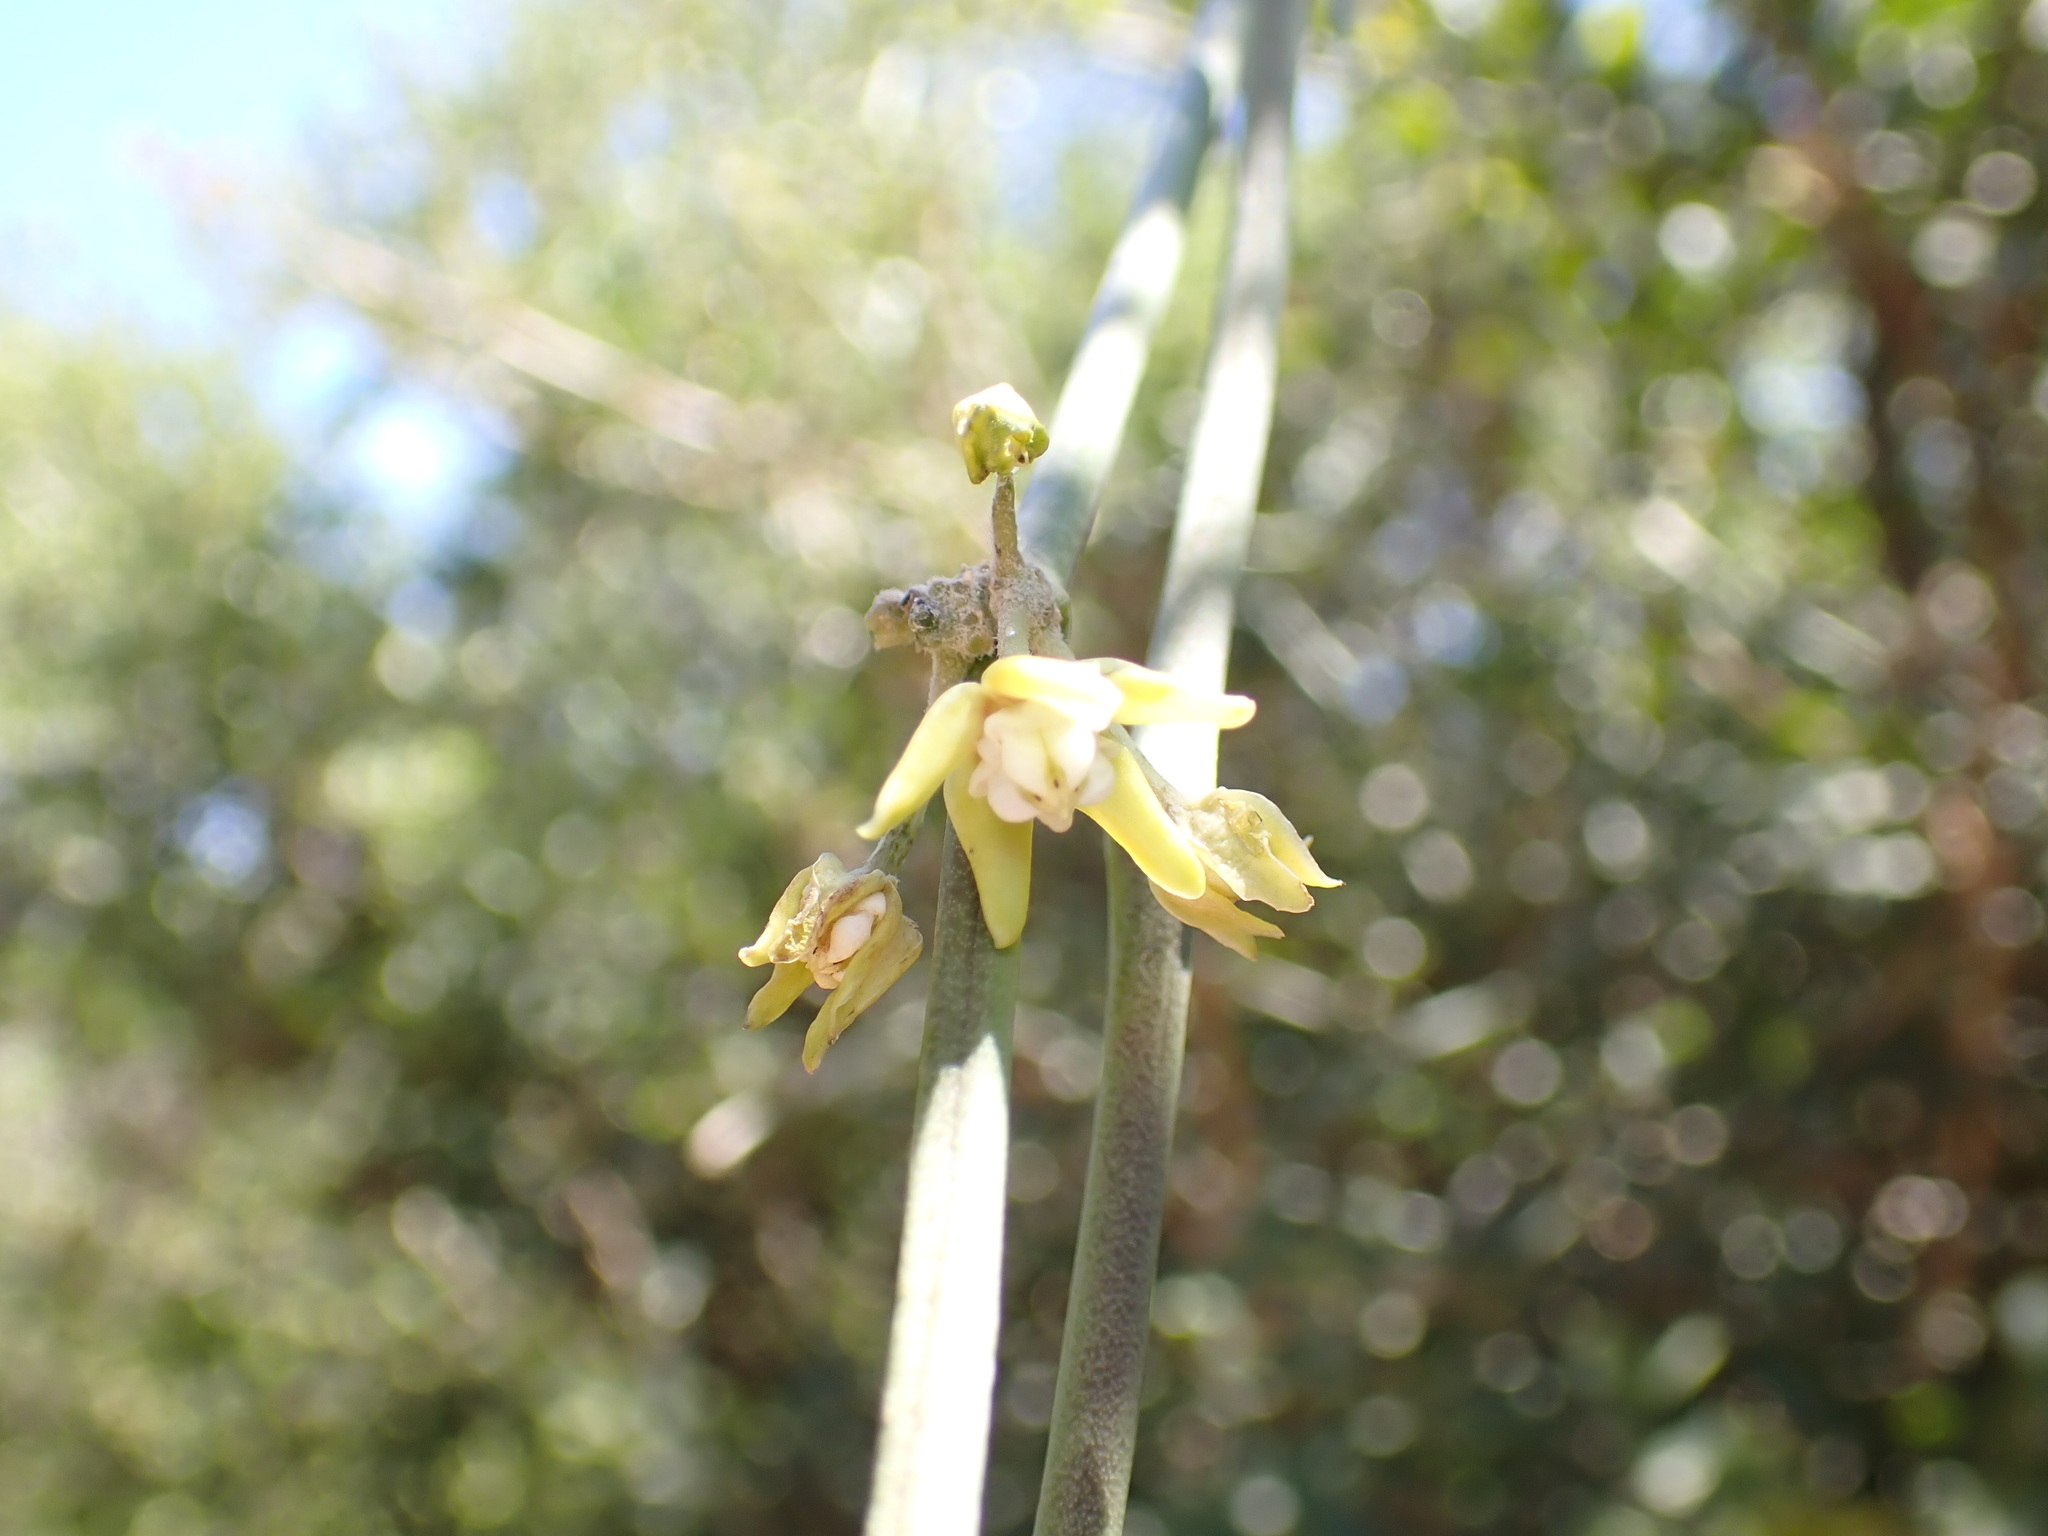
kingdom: Plantae
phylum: Tracheophyta
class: Magnoliopsida
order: Gentianales
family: Apocynaceae
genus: Cynanchum
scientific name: Cynanchum viminale
